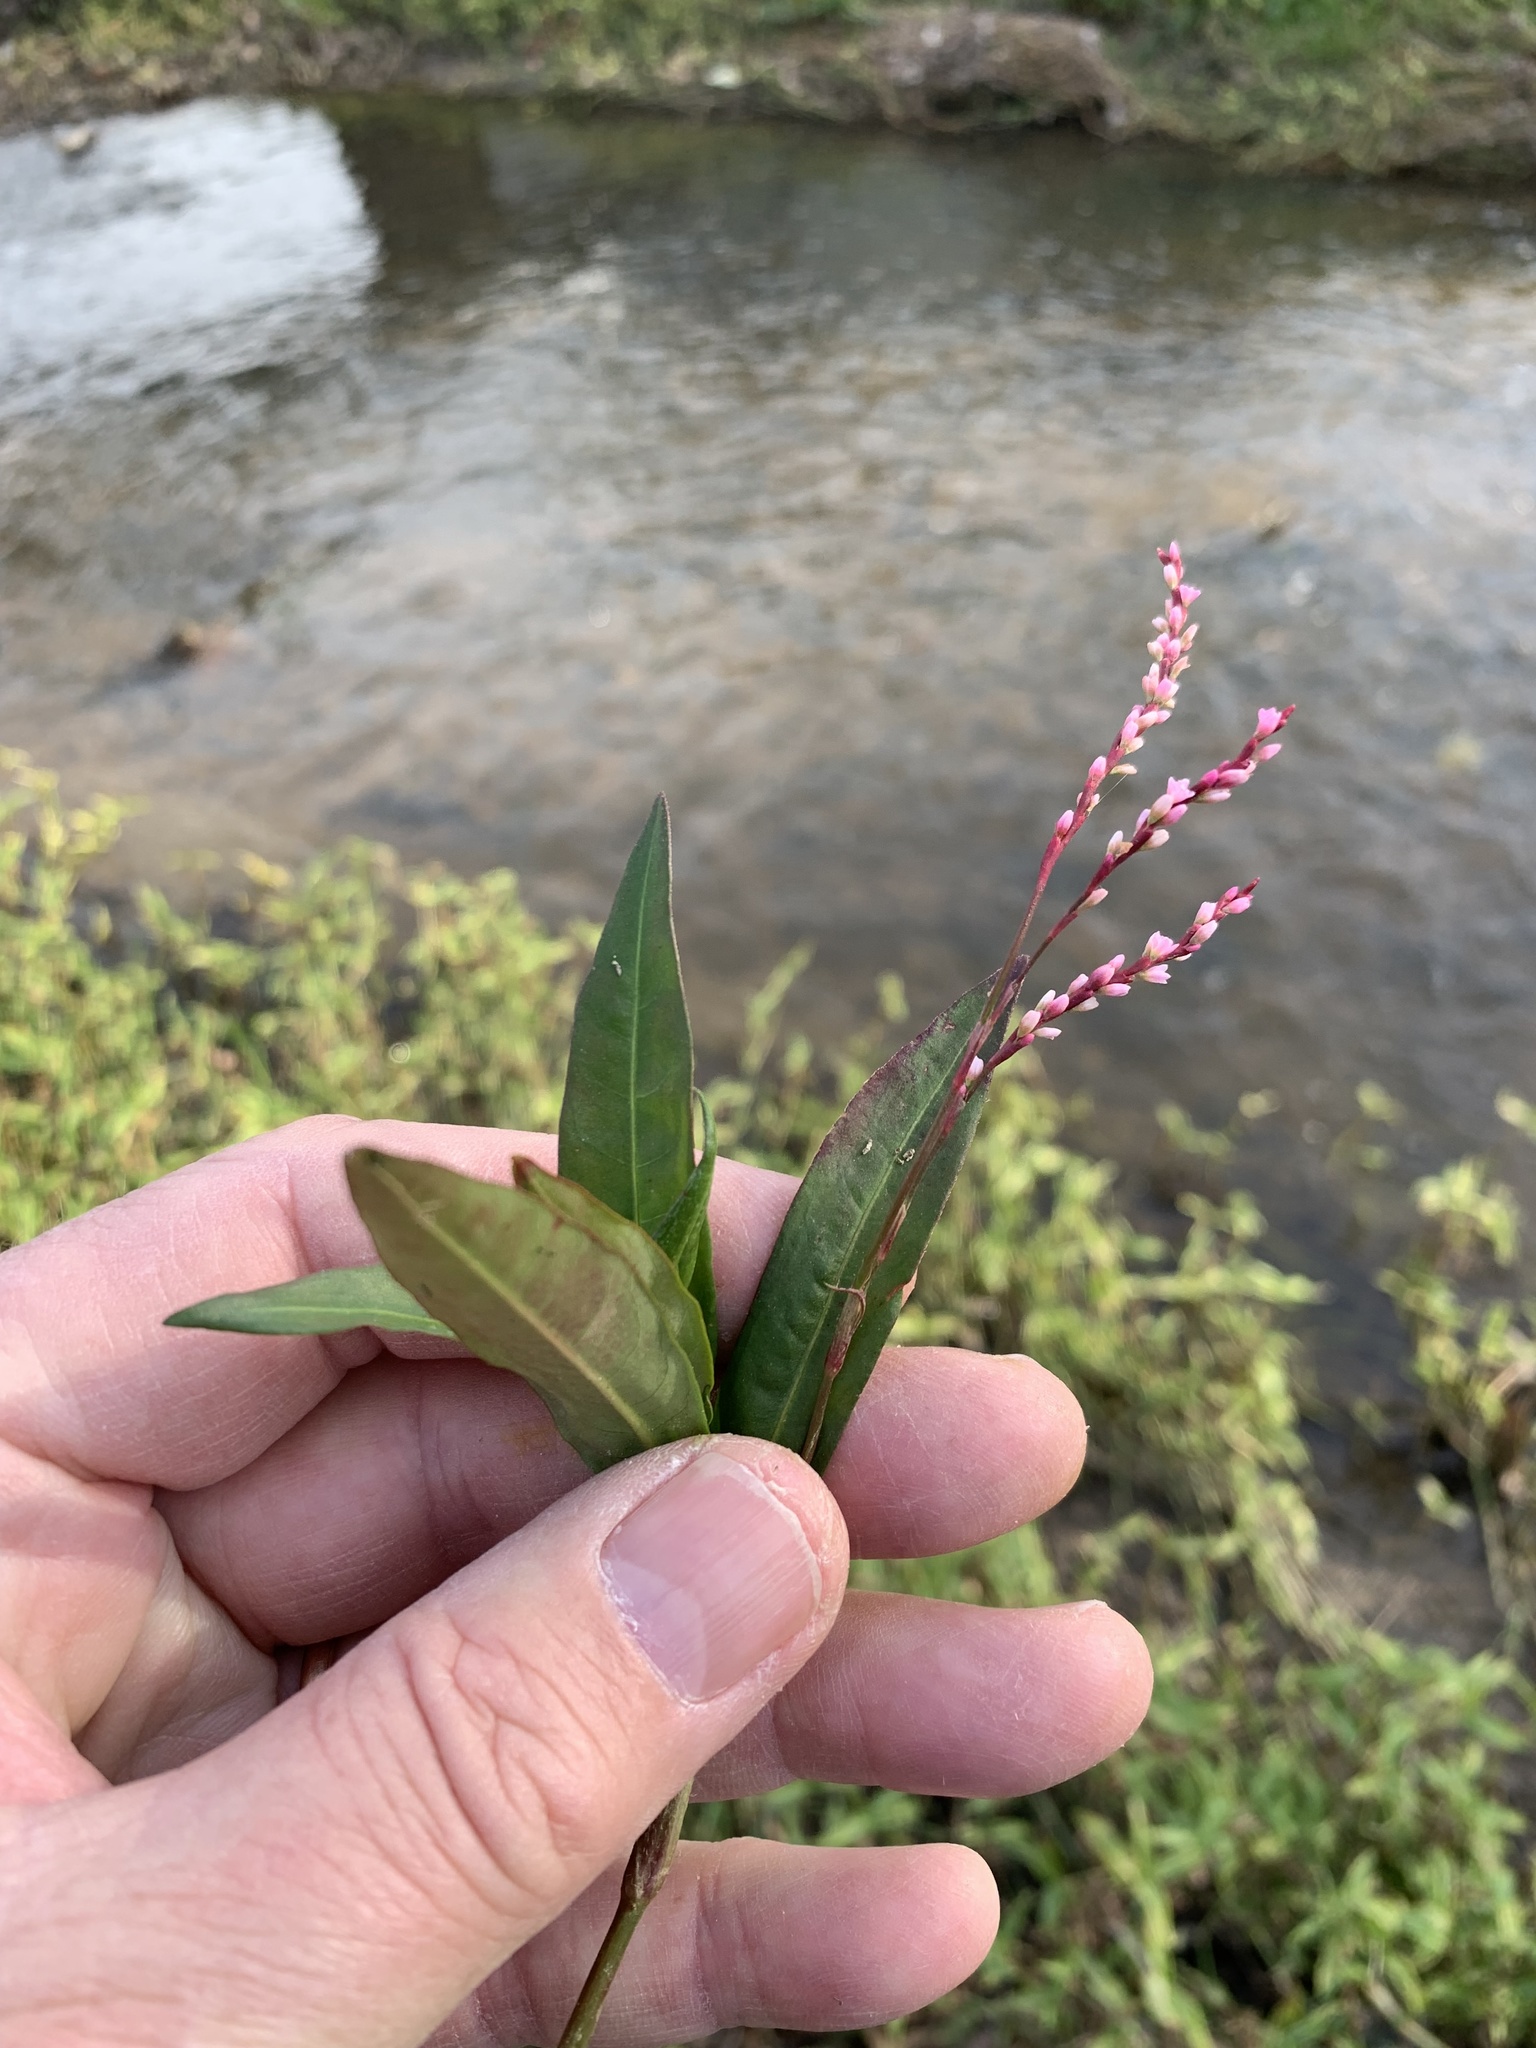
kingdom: Plantae
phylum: Tracheophyta
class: Magnoliopsida
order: Caryophyllales
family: Polygonaceae
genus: Persicaria
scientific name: Persicaria decipiens
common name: Willow-weed
